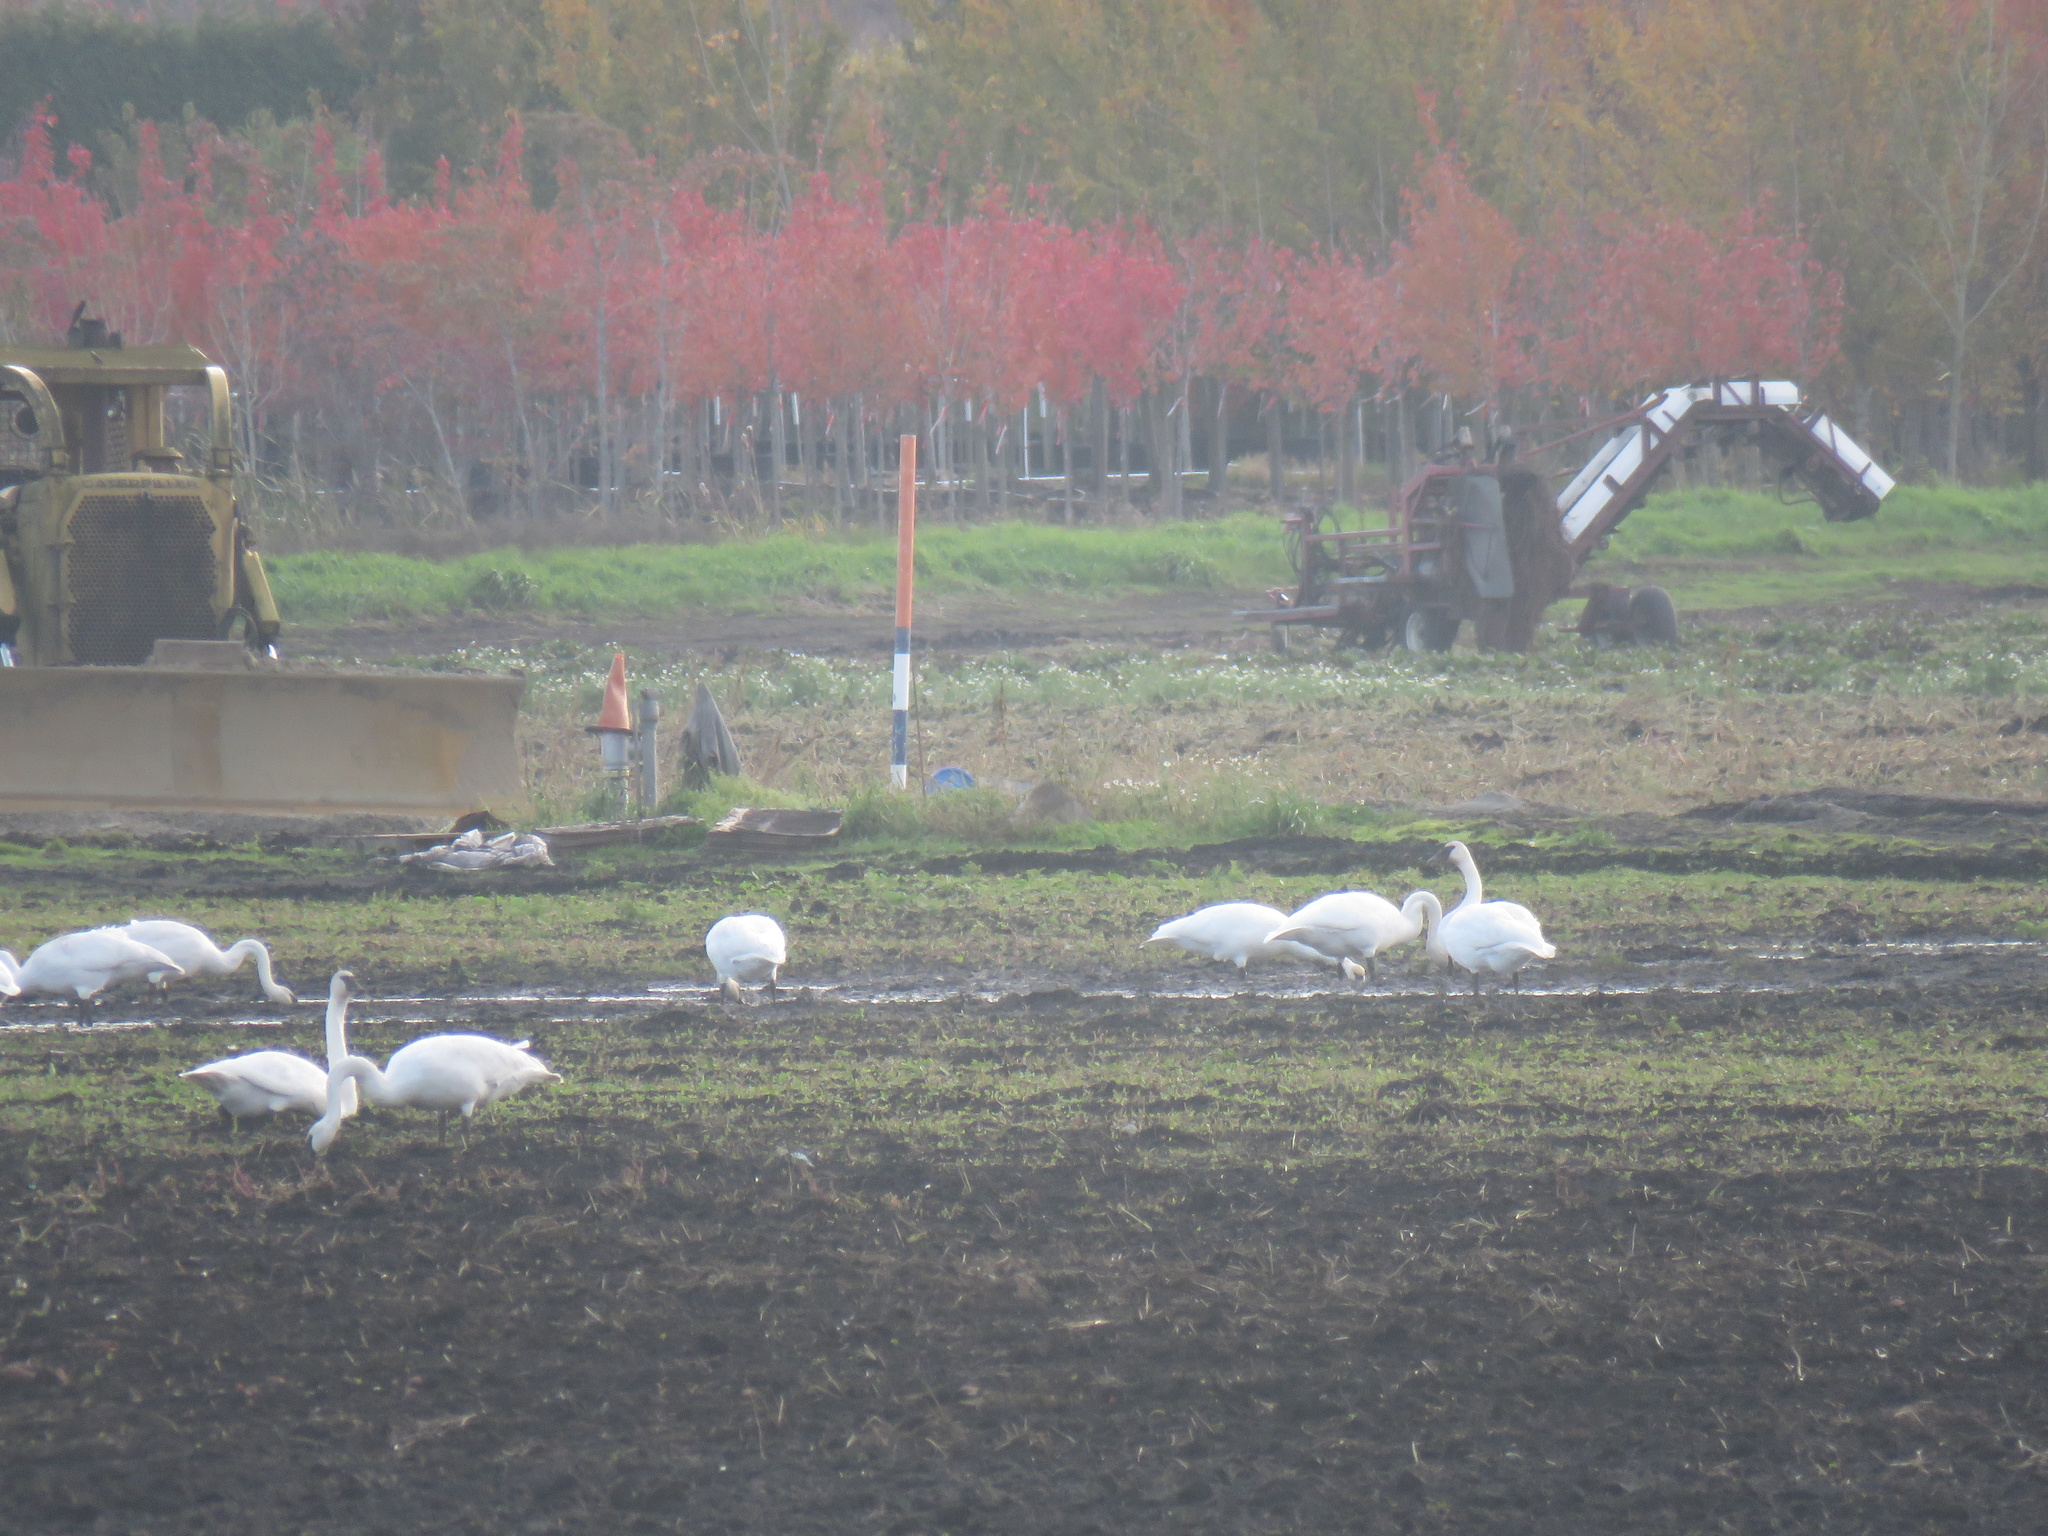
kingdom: Animalia
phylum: Chordata
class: Aves
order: Anseriformes
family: Anatidae
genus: Cygnus
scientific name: Cygnus buccinator
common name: Trumpeter swan
